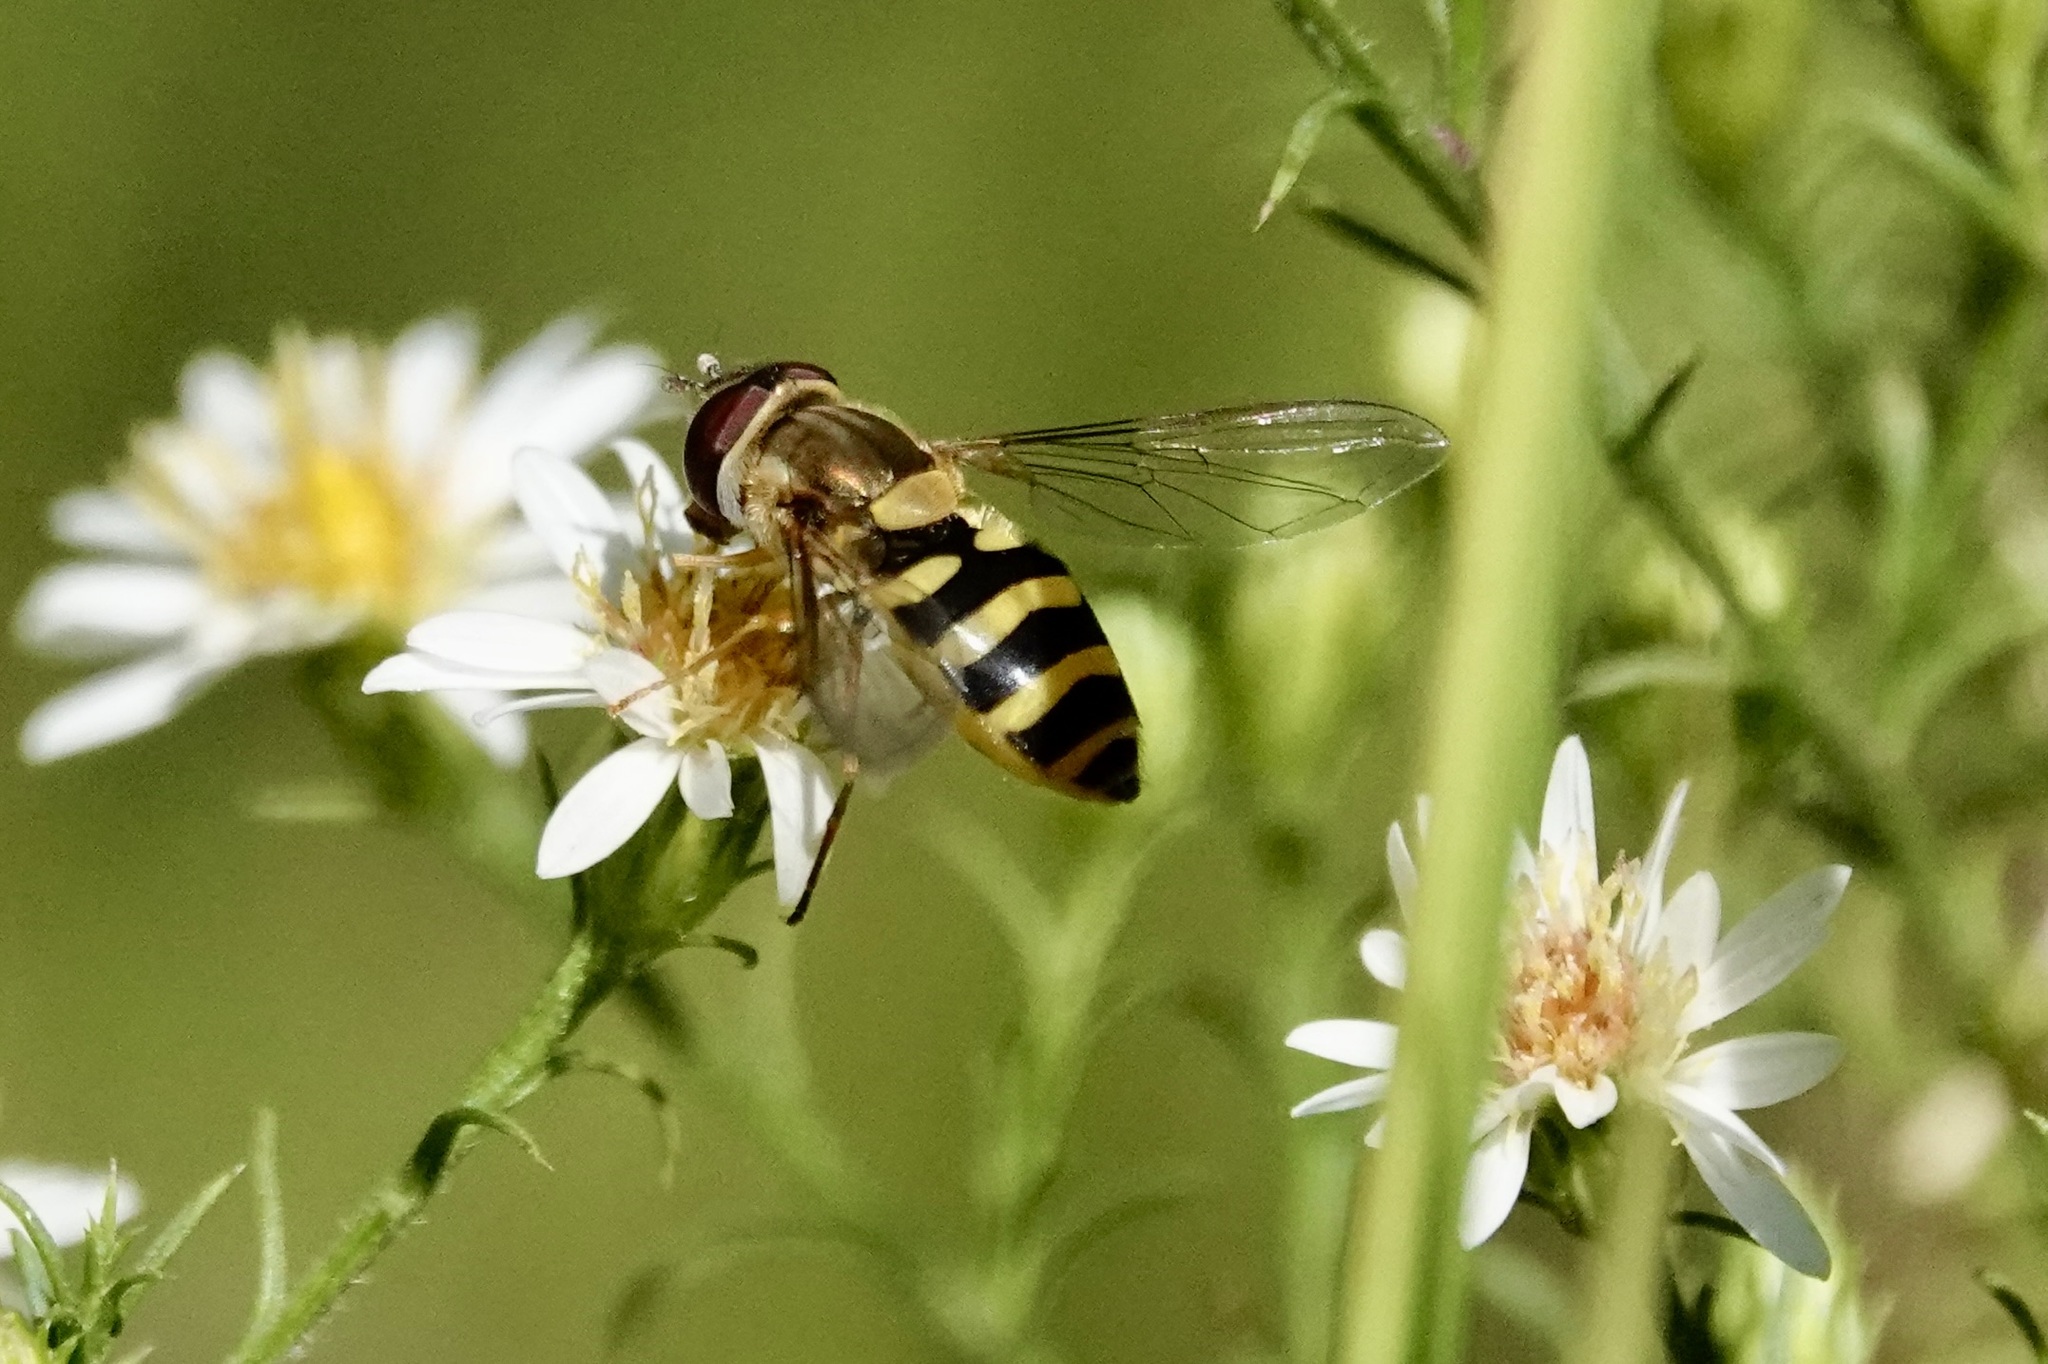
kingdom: Animalia
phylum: Arthropoda
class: Insecta
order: Diptera
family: Syrphidae
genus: Syrphus
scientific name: Syrphus rectus
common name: Yellow-legged flower fly
